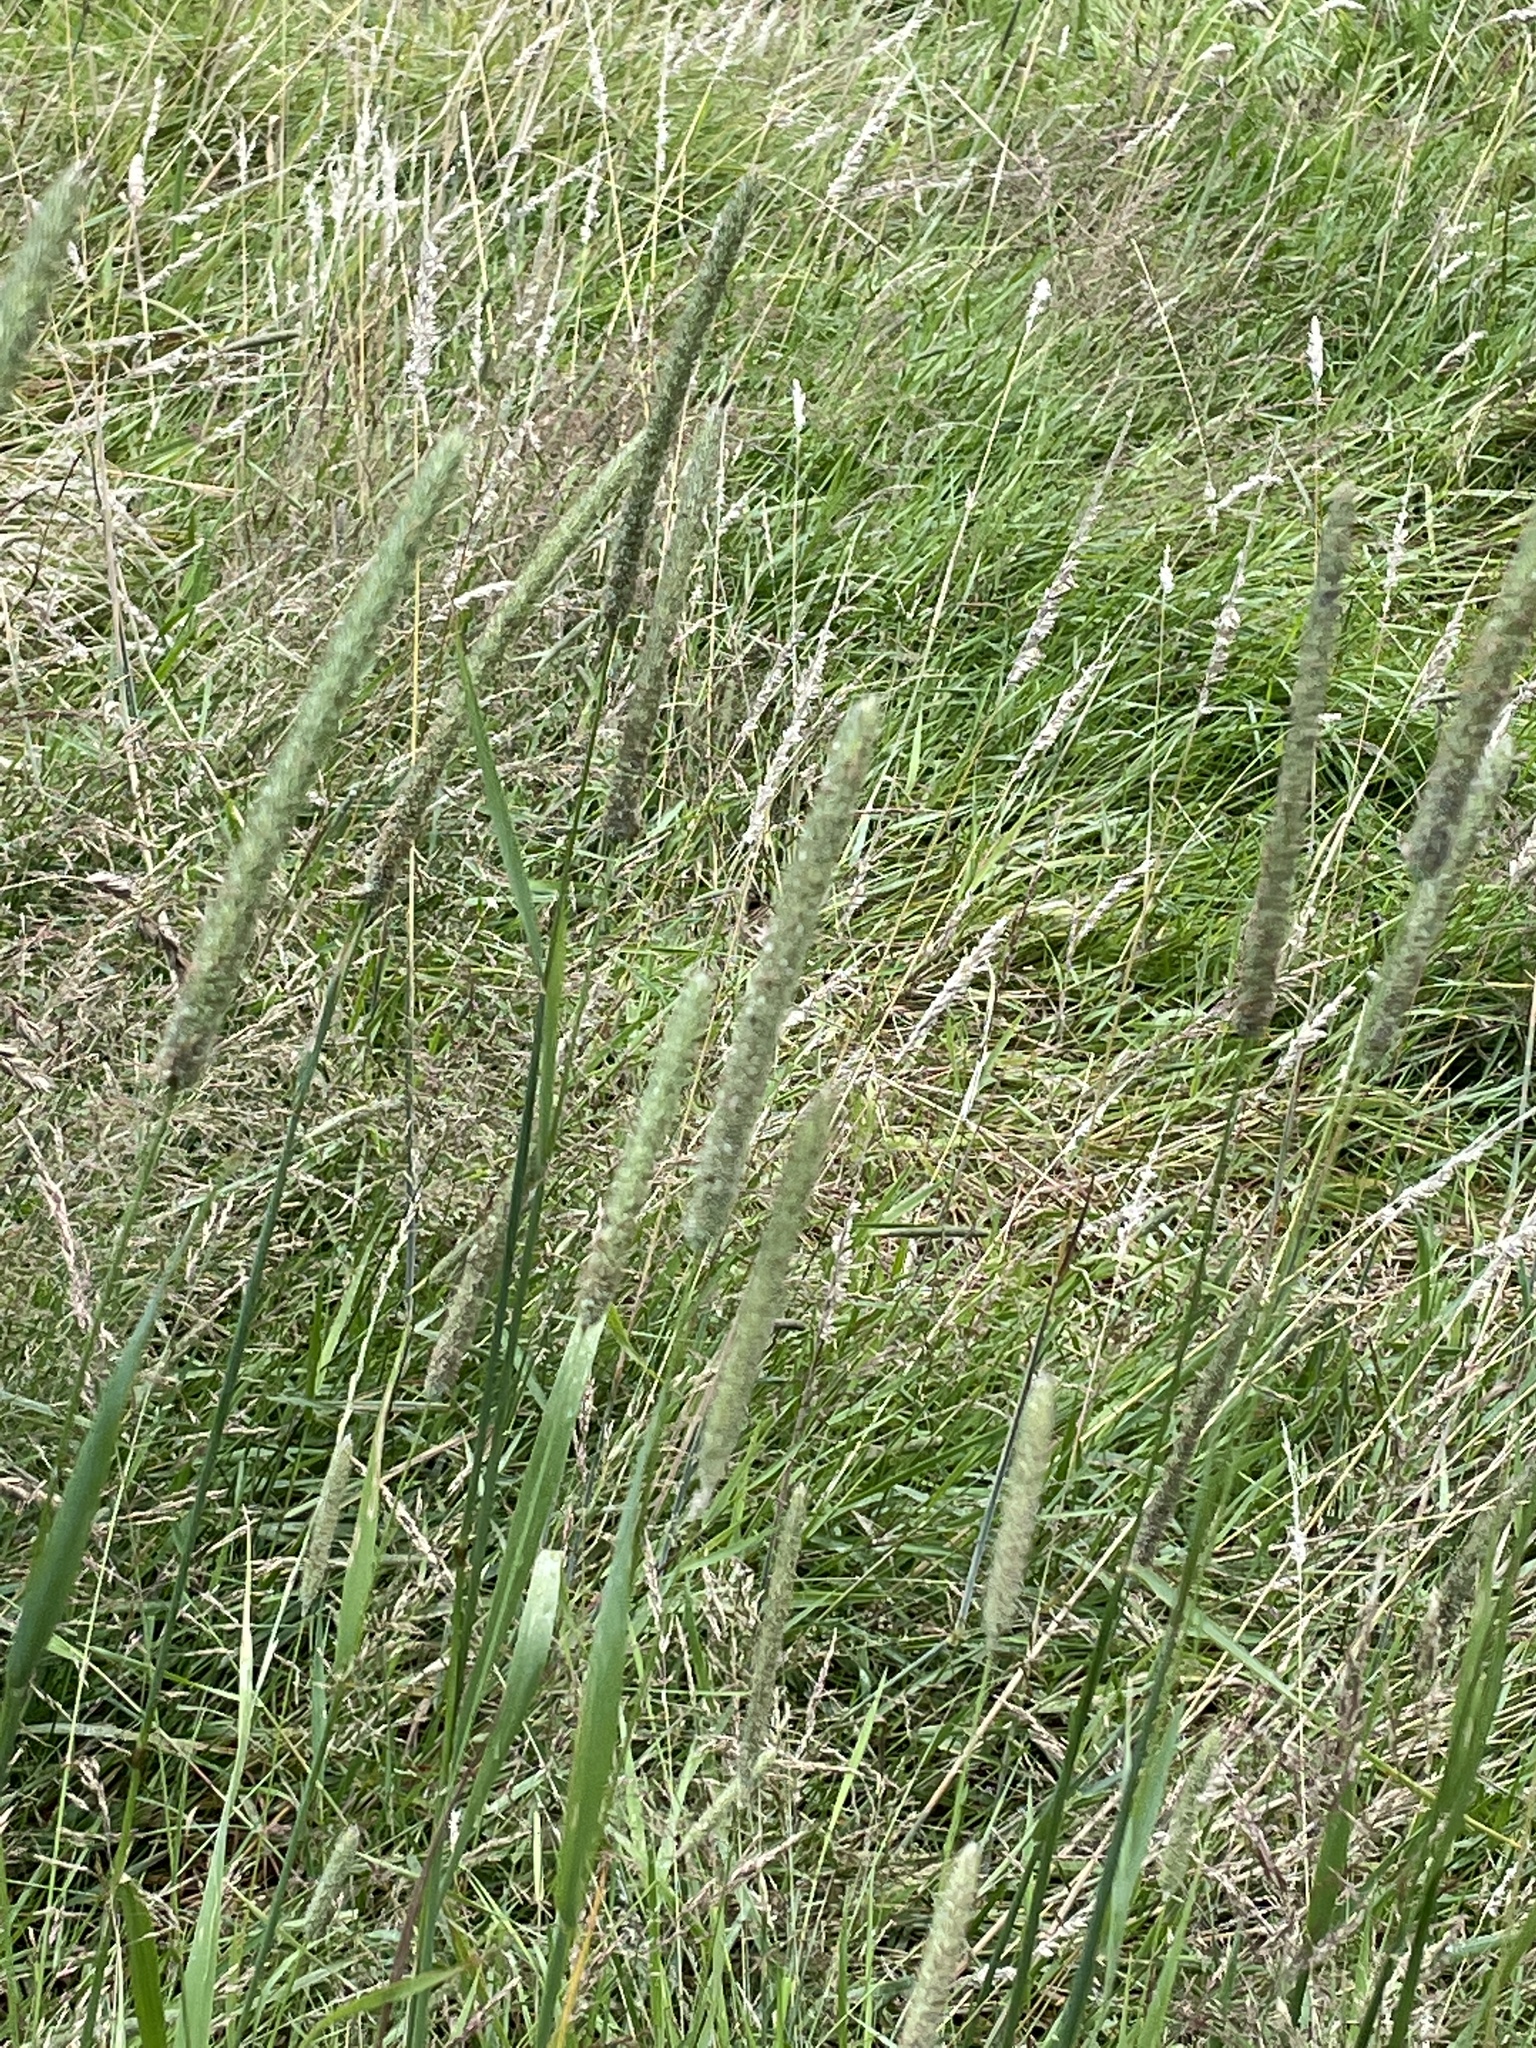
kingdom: Plantae
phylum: Tracheophyta
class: Liliopsida
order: Poales
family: Poaceae
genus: Phleum
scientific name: Phleum pratense
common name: Timothy grass
